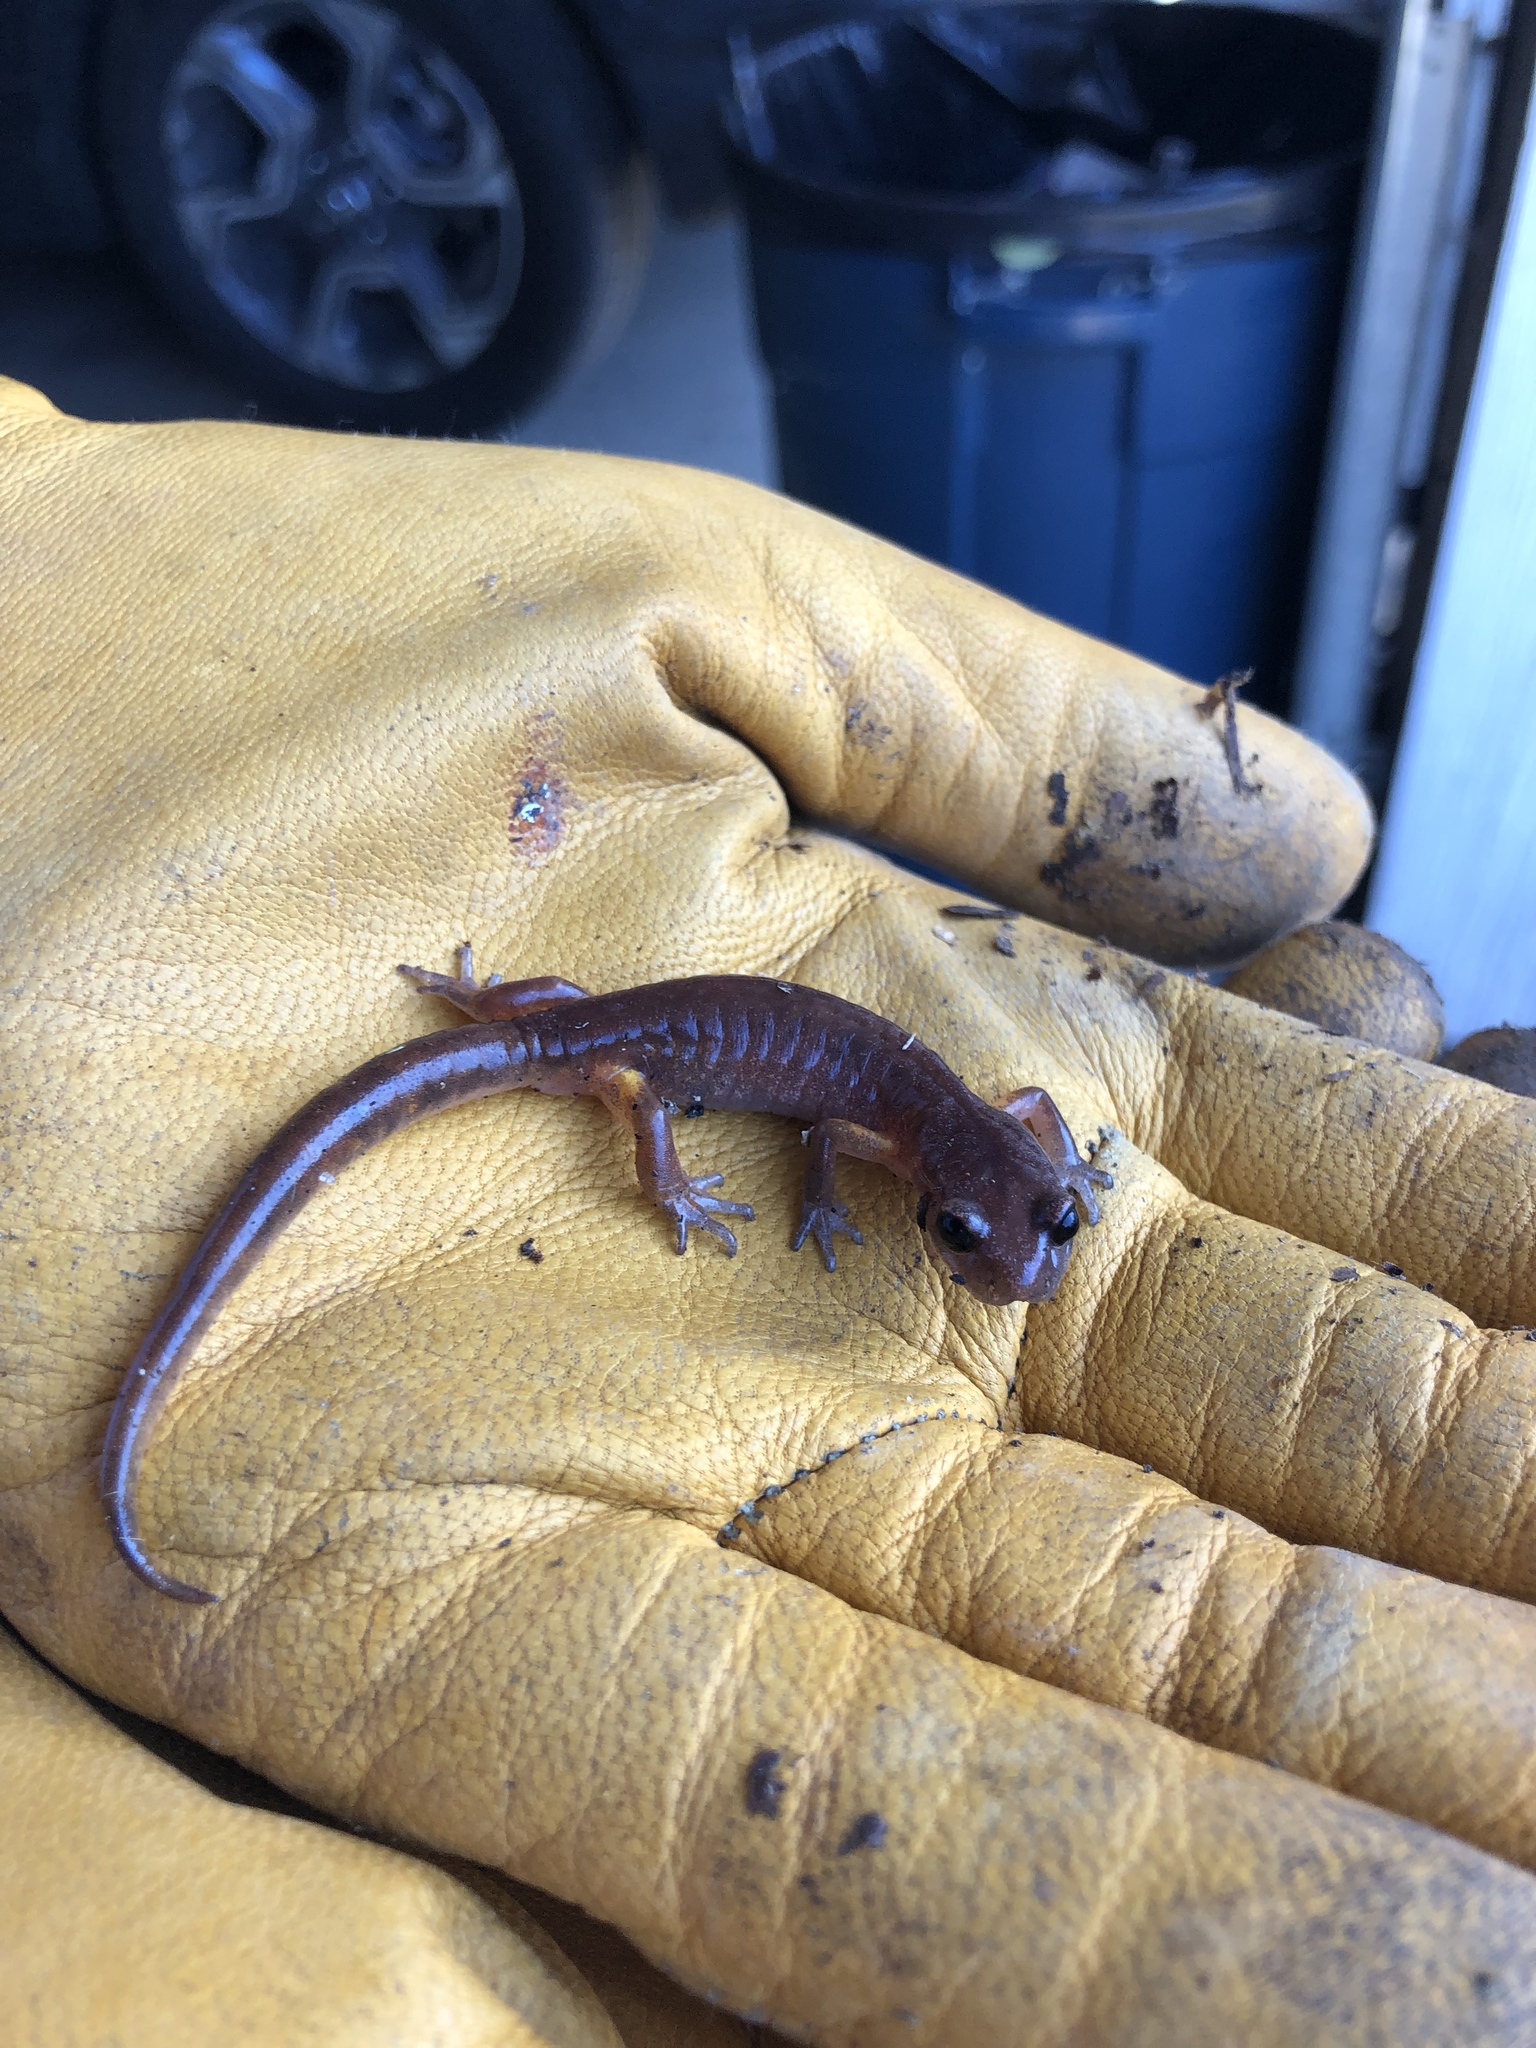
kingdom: Animalia
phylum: Chordata
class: Amphibia
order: Caudata
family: Plethodontidae
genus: Ensatina
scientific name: Ensatina eschscholtzii
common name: Ensatina
